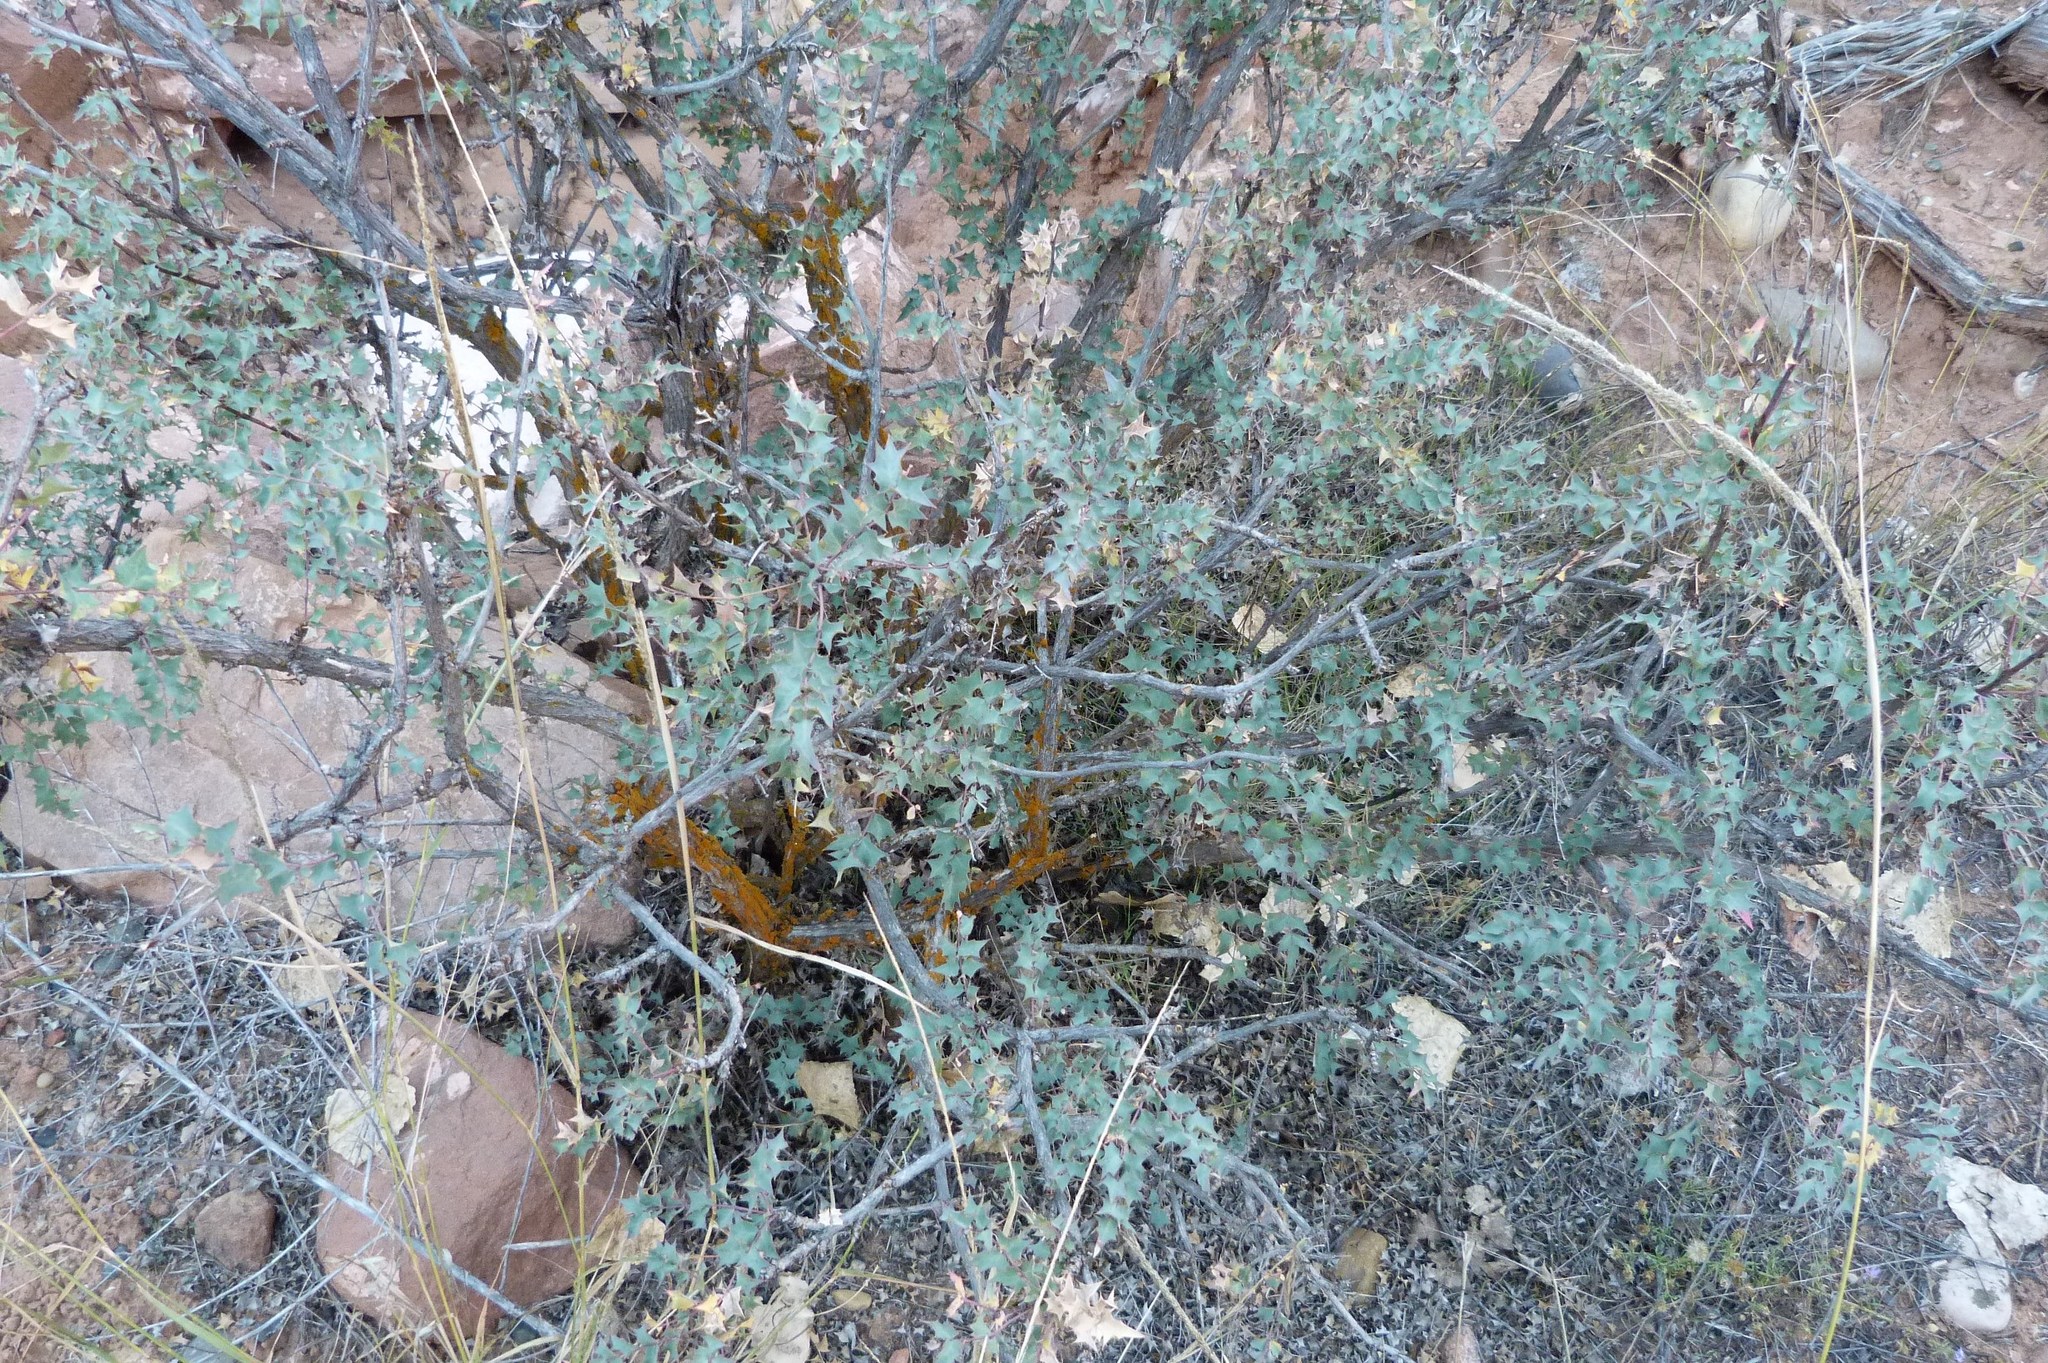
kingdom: Plantae
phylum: Tracheophyta
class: Magnoliopsida
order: Ranunculales
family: Berberidaceae
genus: Alloberberis
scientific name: Alloberberis fremontii
